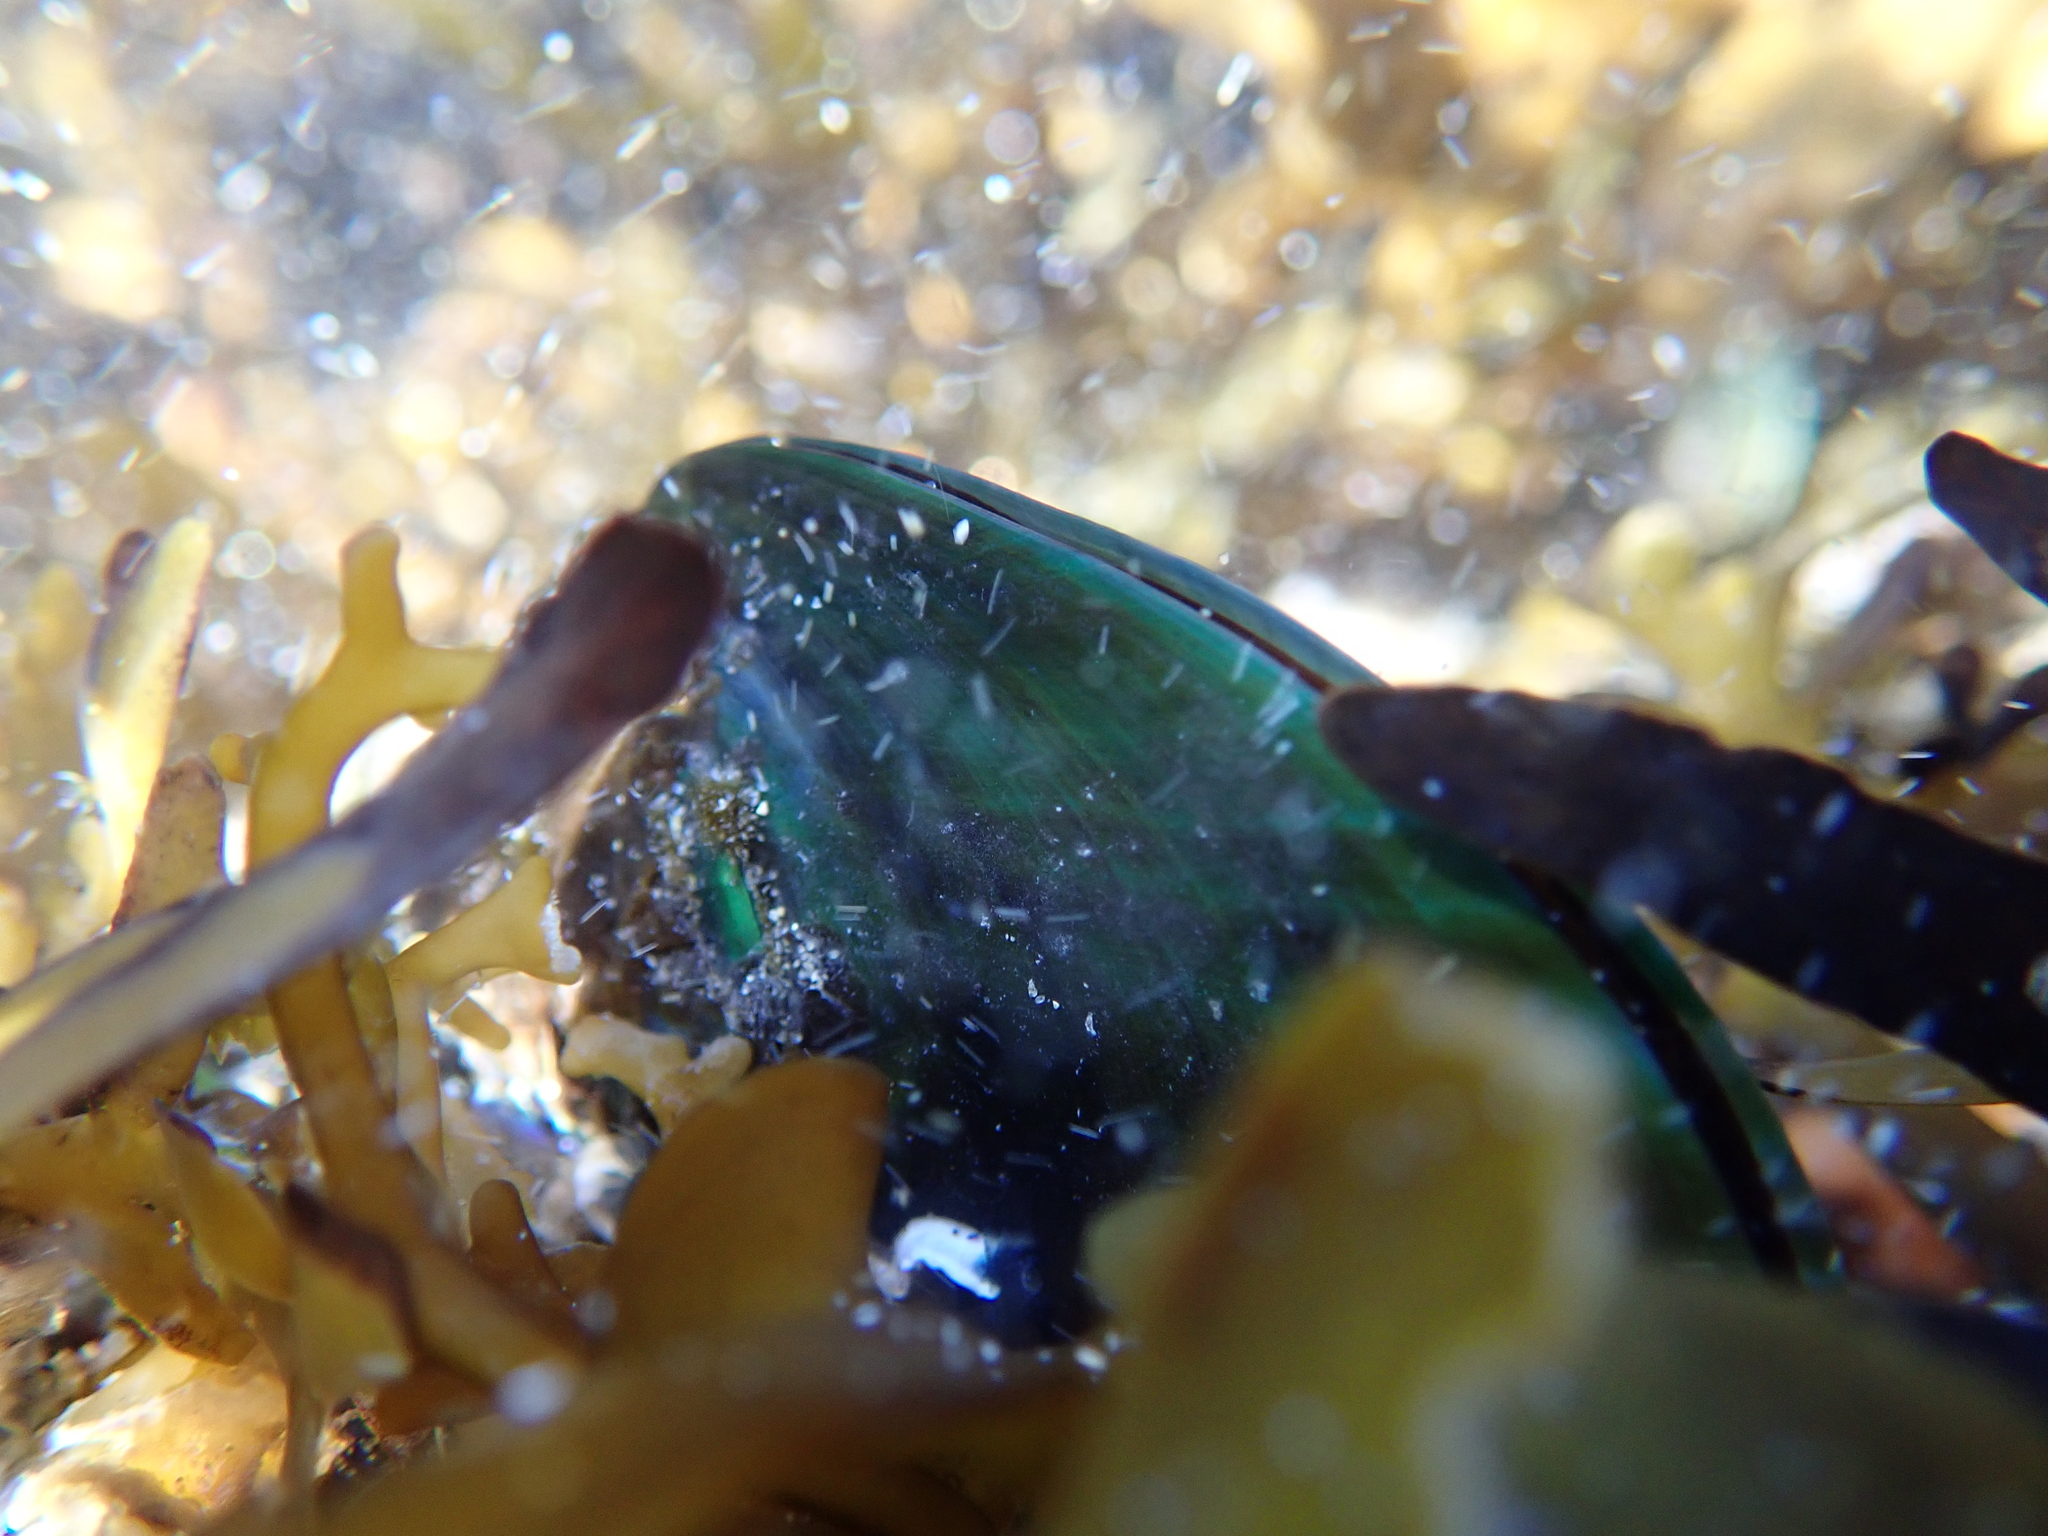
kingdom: Animalia
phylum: Mollusca
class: Bivalvia
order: Mytilida
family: Mytilidae
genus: Perna
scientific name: Perna canaliculus
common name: New zealand greenshelltm
